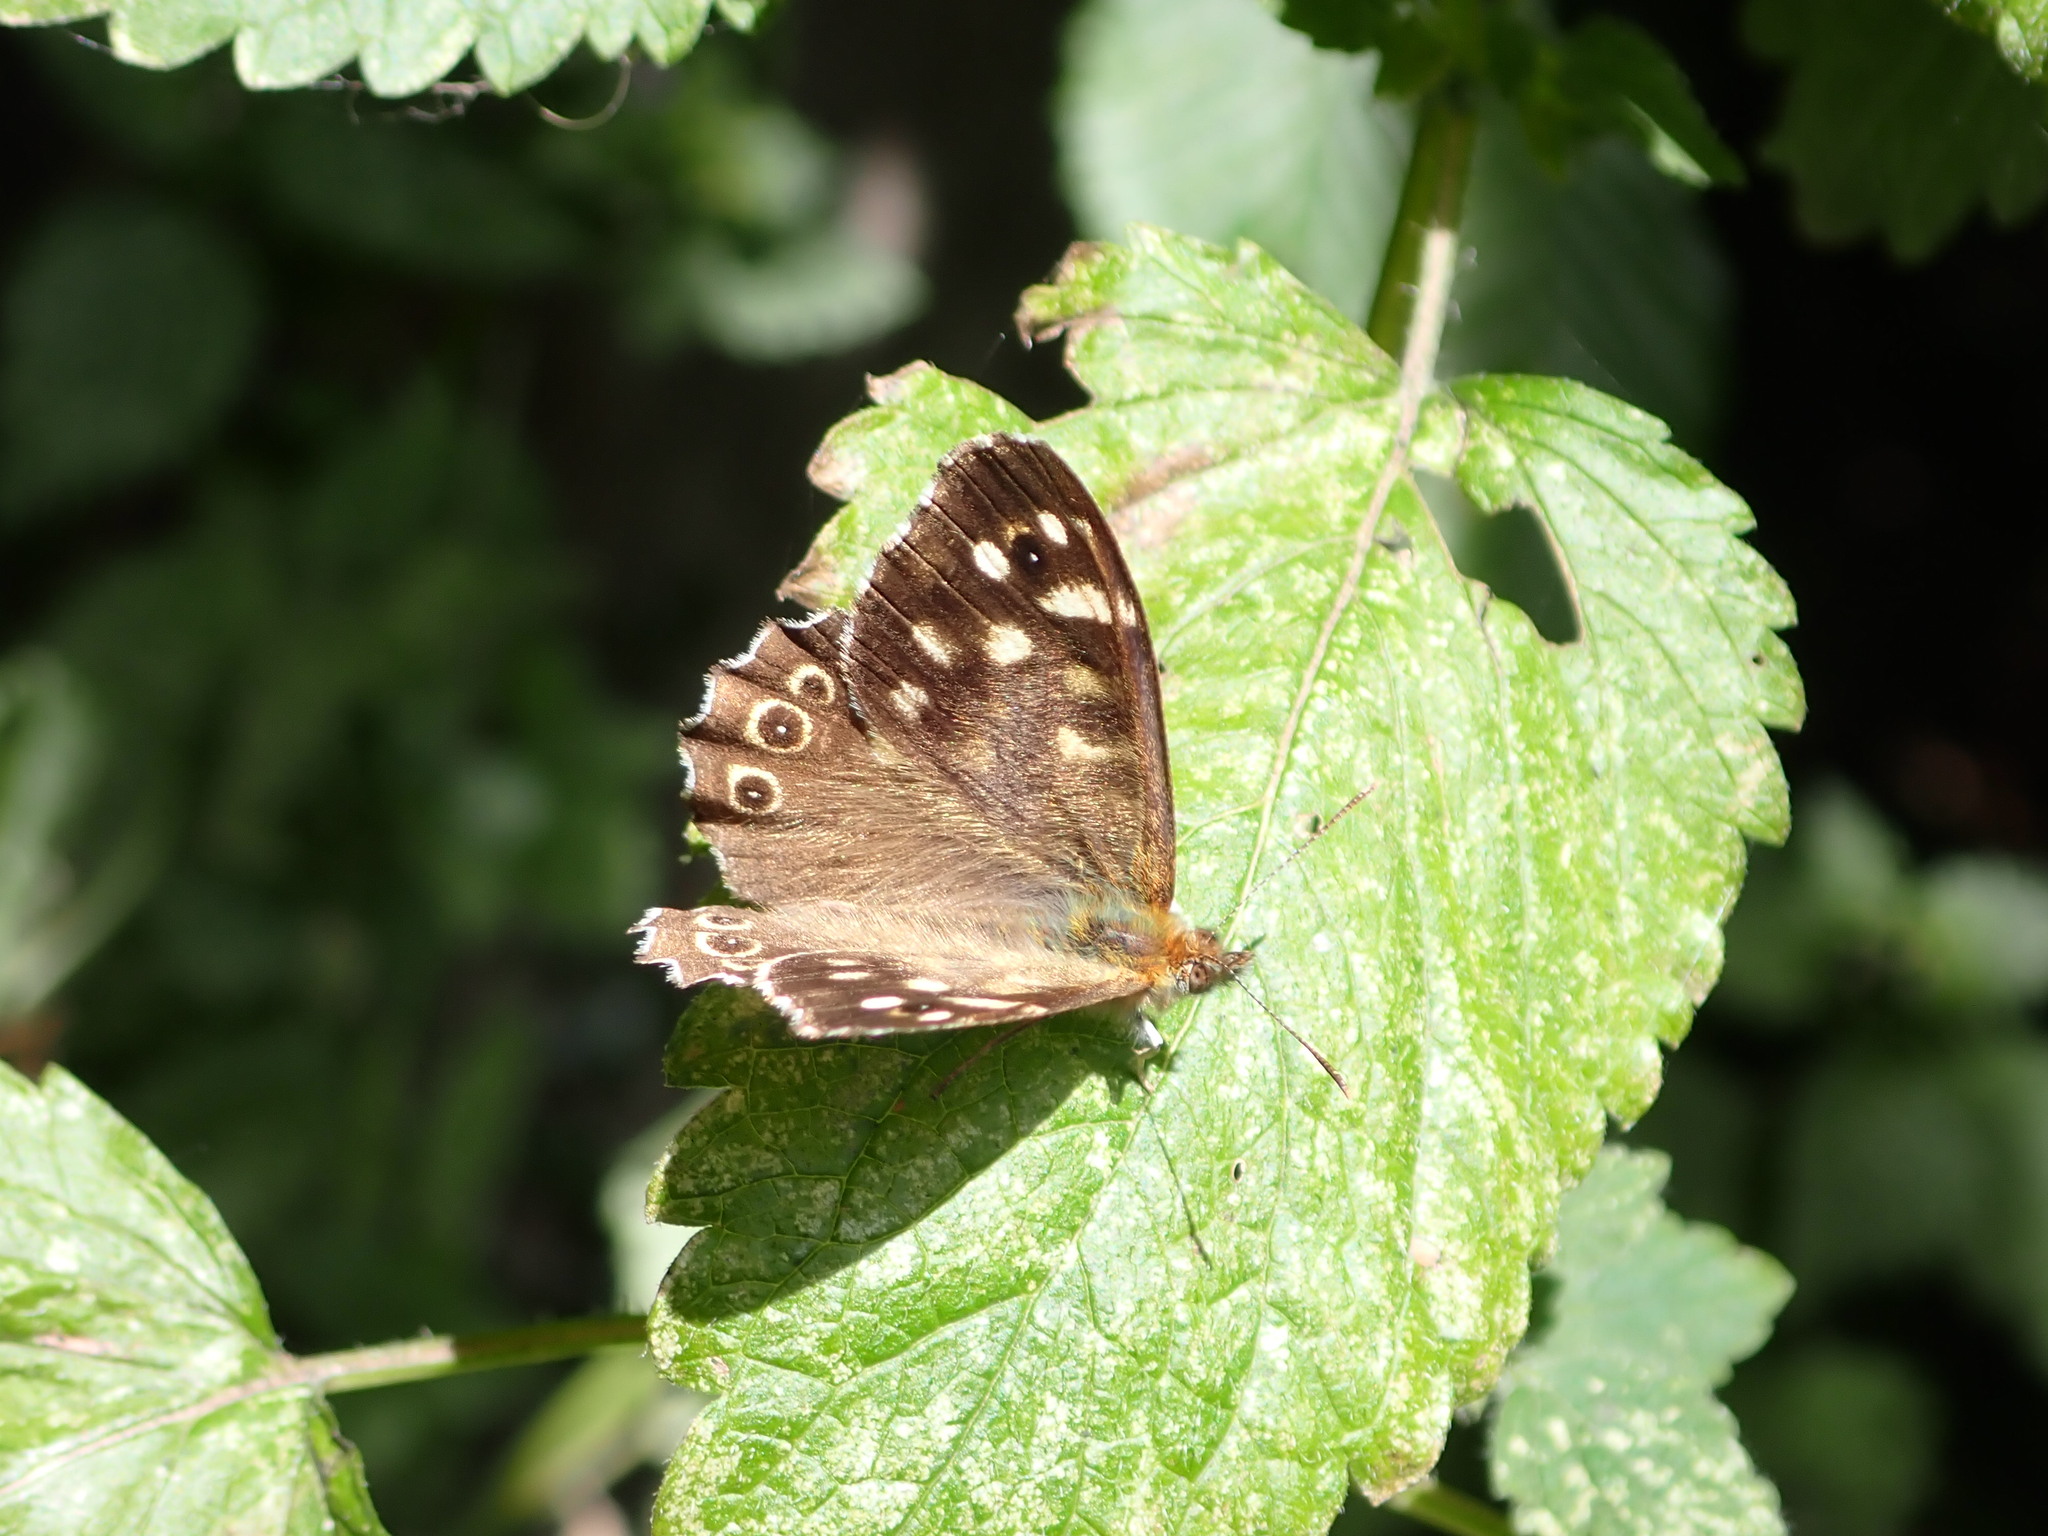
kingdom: Animalia
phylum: Arthropoda
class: Insecta
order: Lepidoptera
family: Nymphalidae
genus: Pararge
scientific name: Pararge aegeria
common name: Speckled wood
